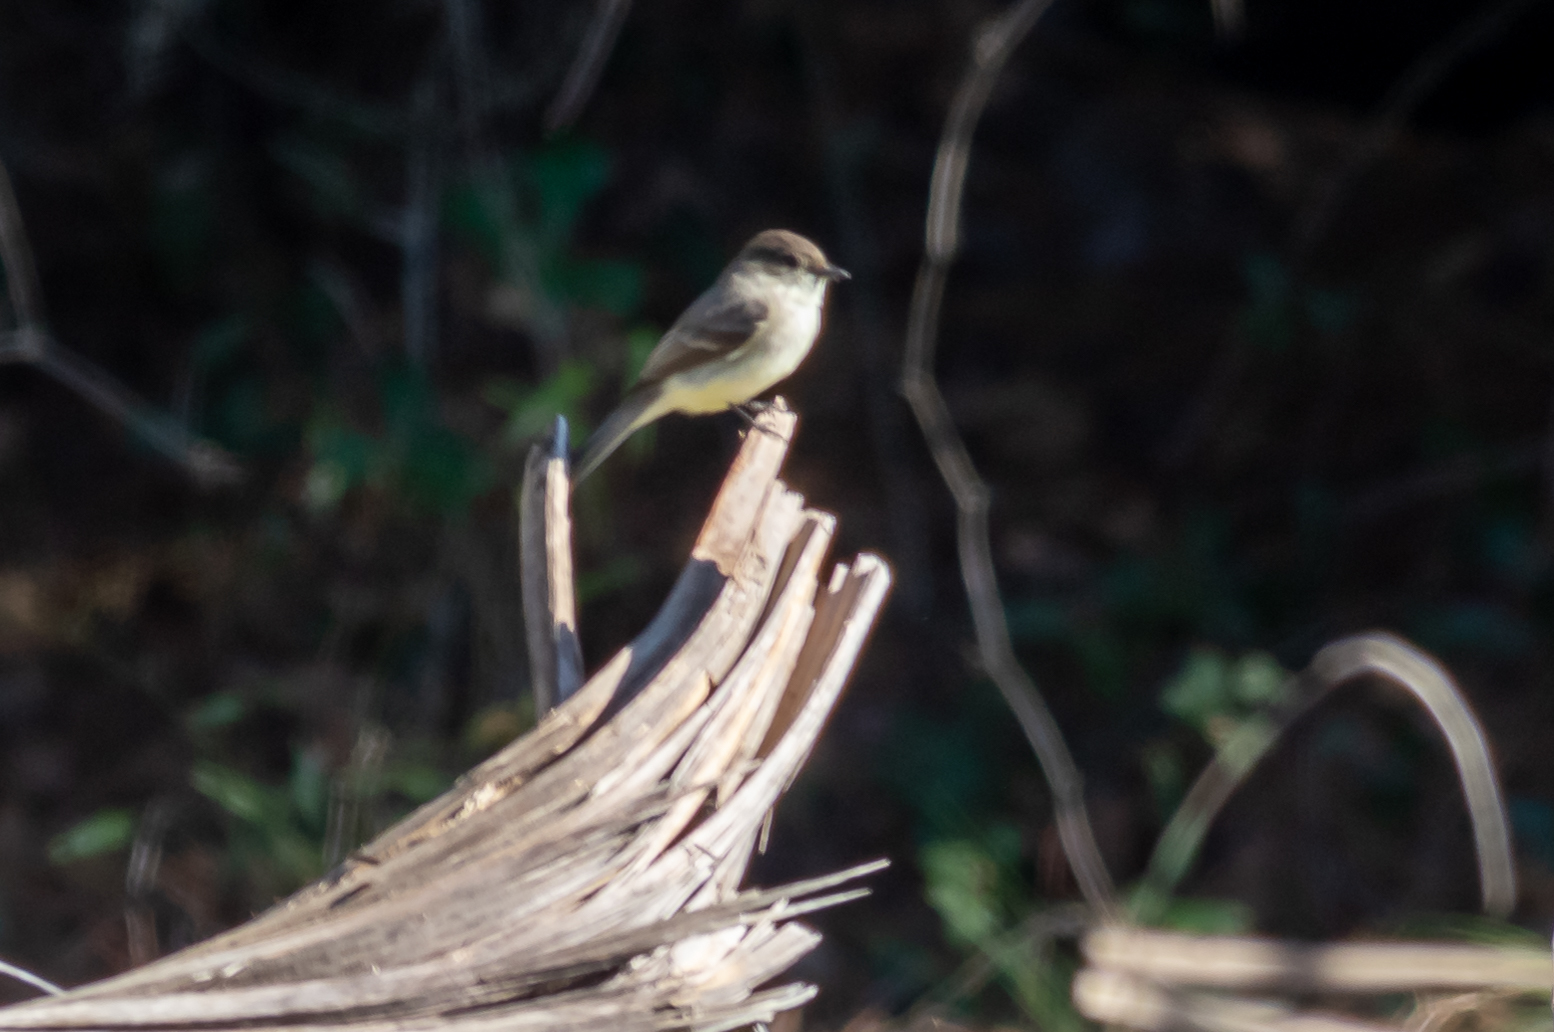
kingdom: Animalia
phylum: Chordata
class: Aves
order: Passeriformes
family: Tyrannidae
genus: Sayornis
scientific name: Sayornis phoebe
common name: Eastern phoebe
